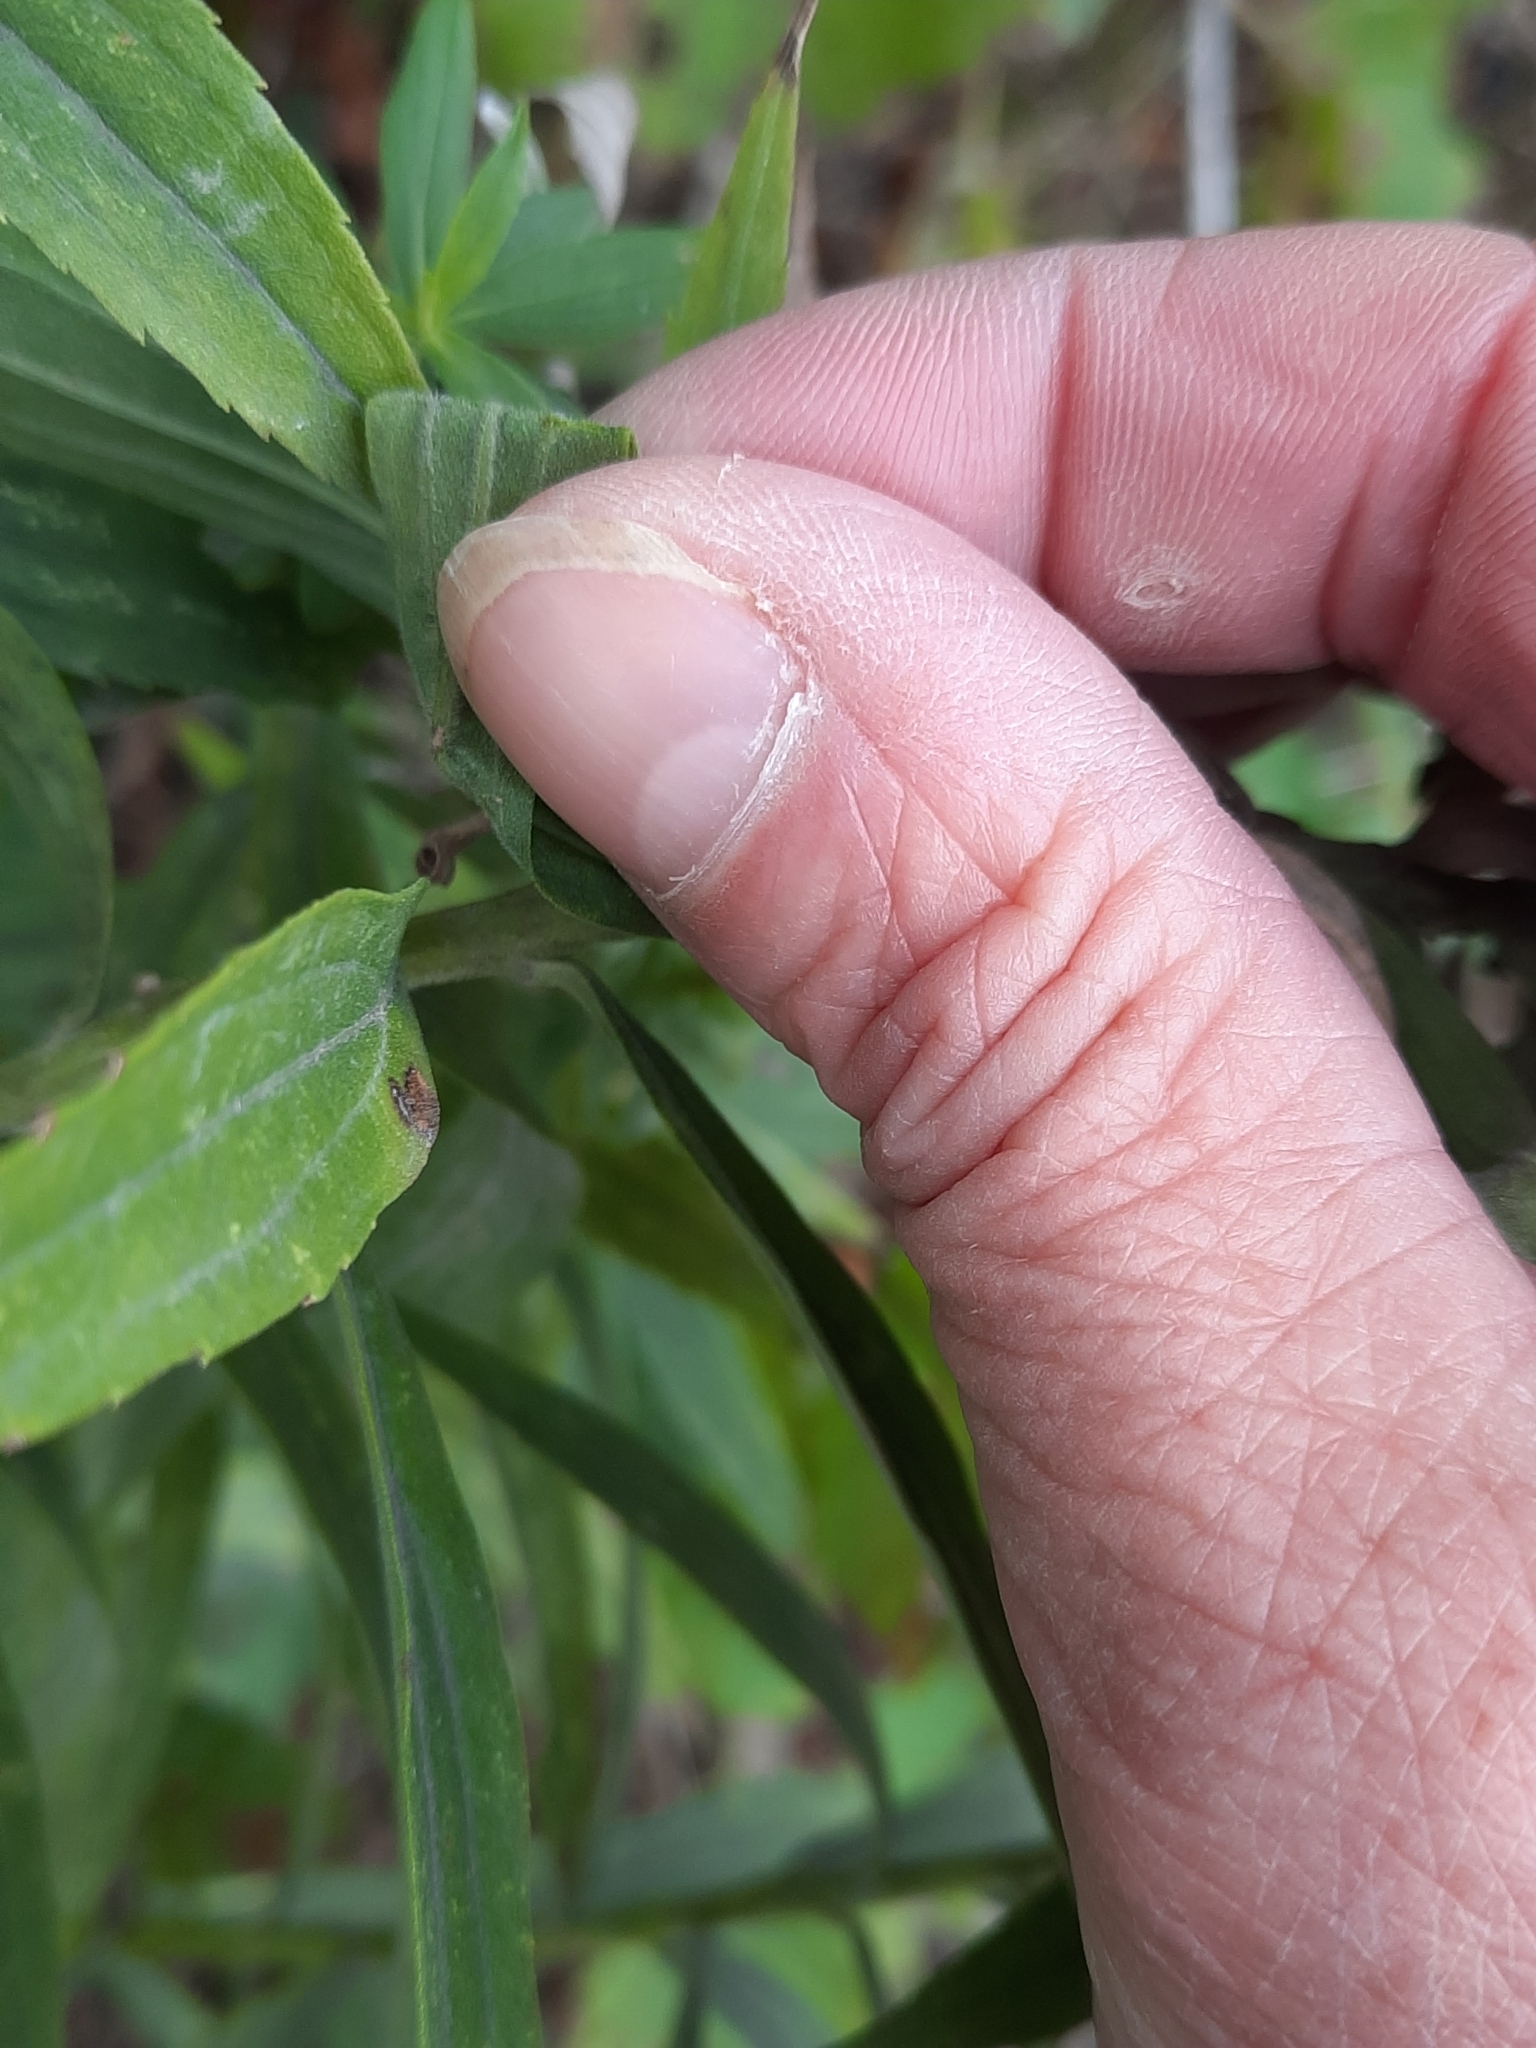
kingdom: Plantae
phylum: Tracheophyta
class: Magnoliopsida
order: Asterales
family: Asteraceae
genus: Solidago
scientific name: Solidago altissima
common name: Late goldenrod
